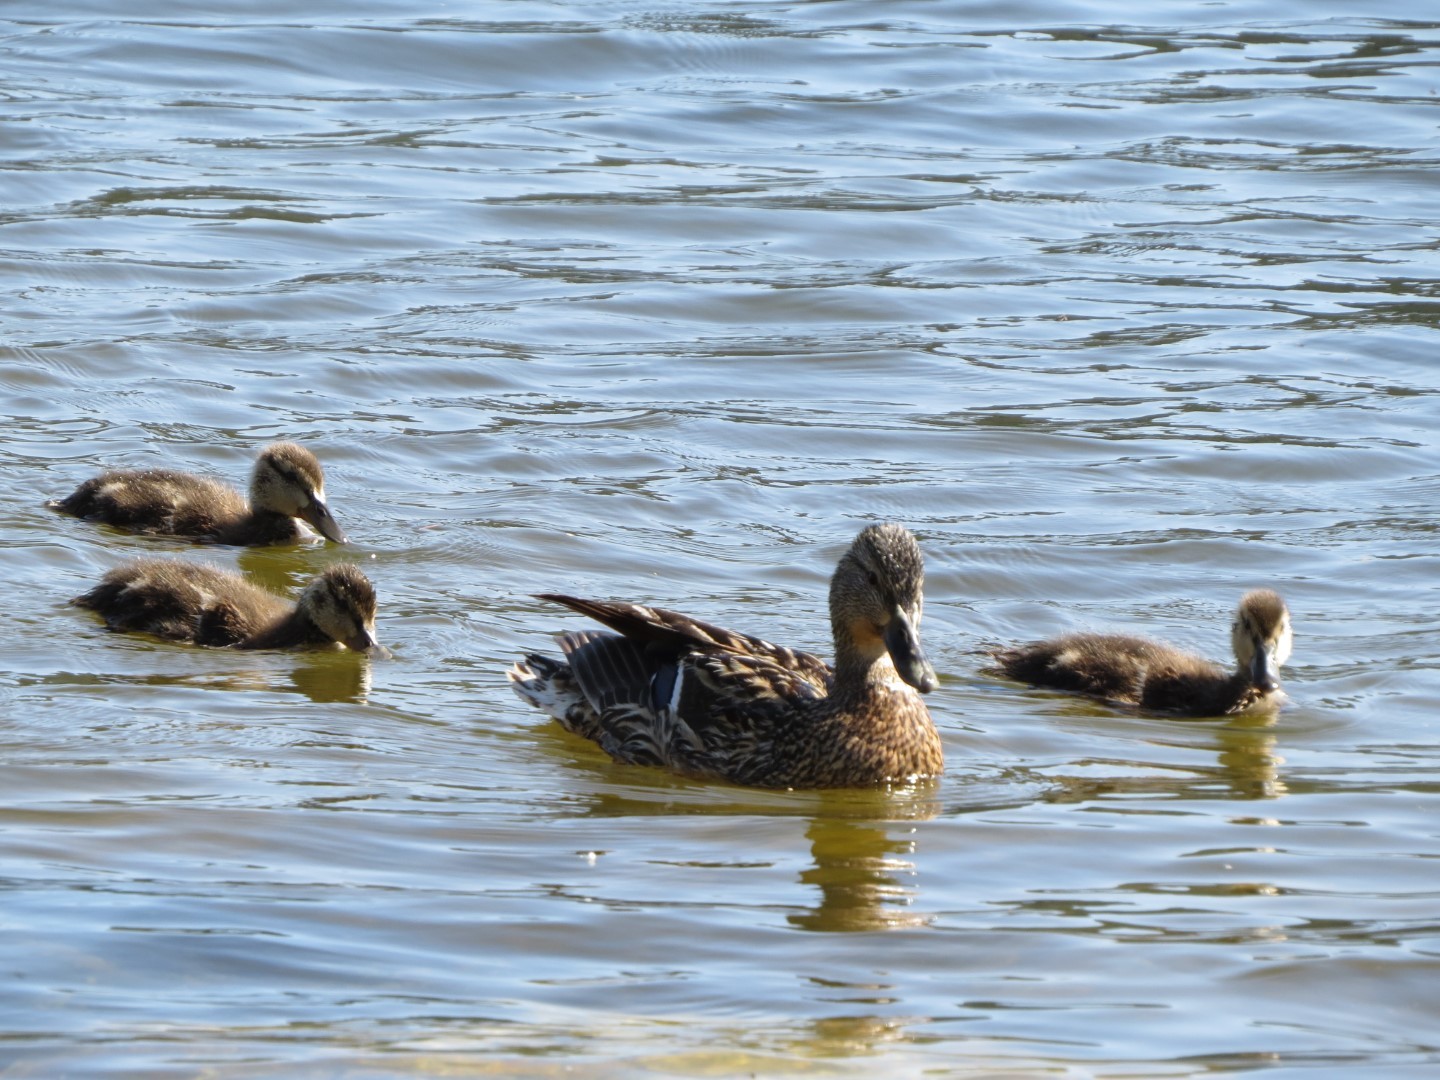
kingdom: Animalia
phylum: Chordata
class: Aves
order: Anseriformes
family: Anatidae
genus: Anas
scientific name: Anas platyrhynchos
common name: Mallard
